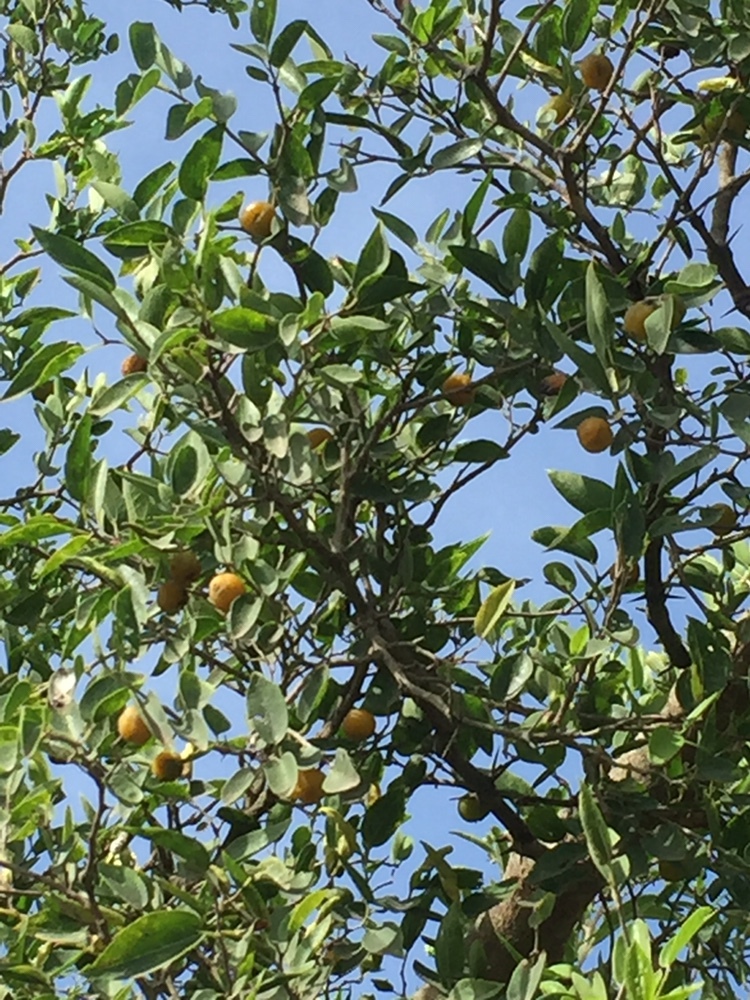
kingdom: Plantae
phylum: Tracheophyta
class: Magnoliopsida
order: Rosales
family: Cannabaceae
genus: Celtis
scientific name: Celtis tala
